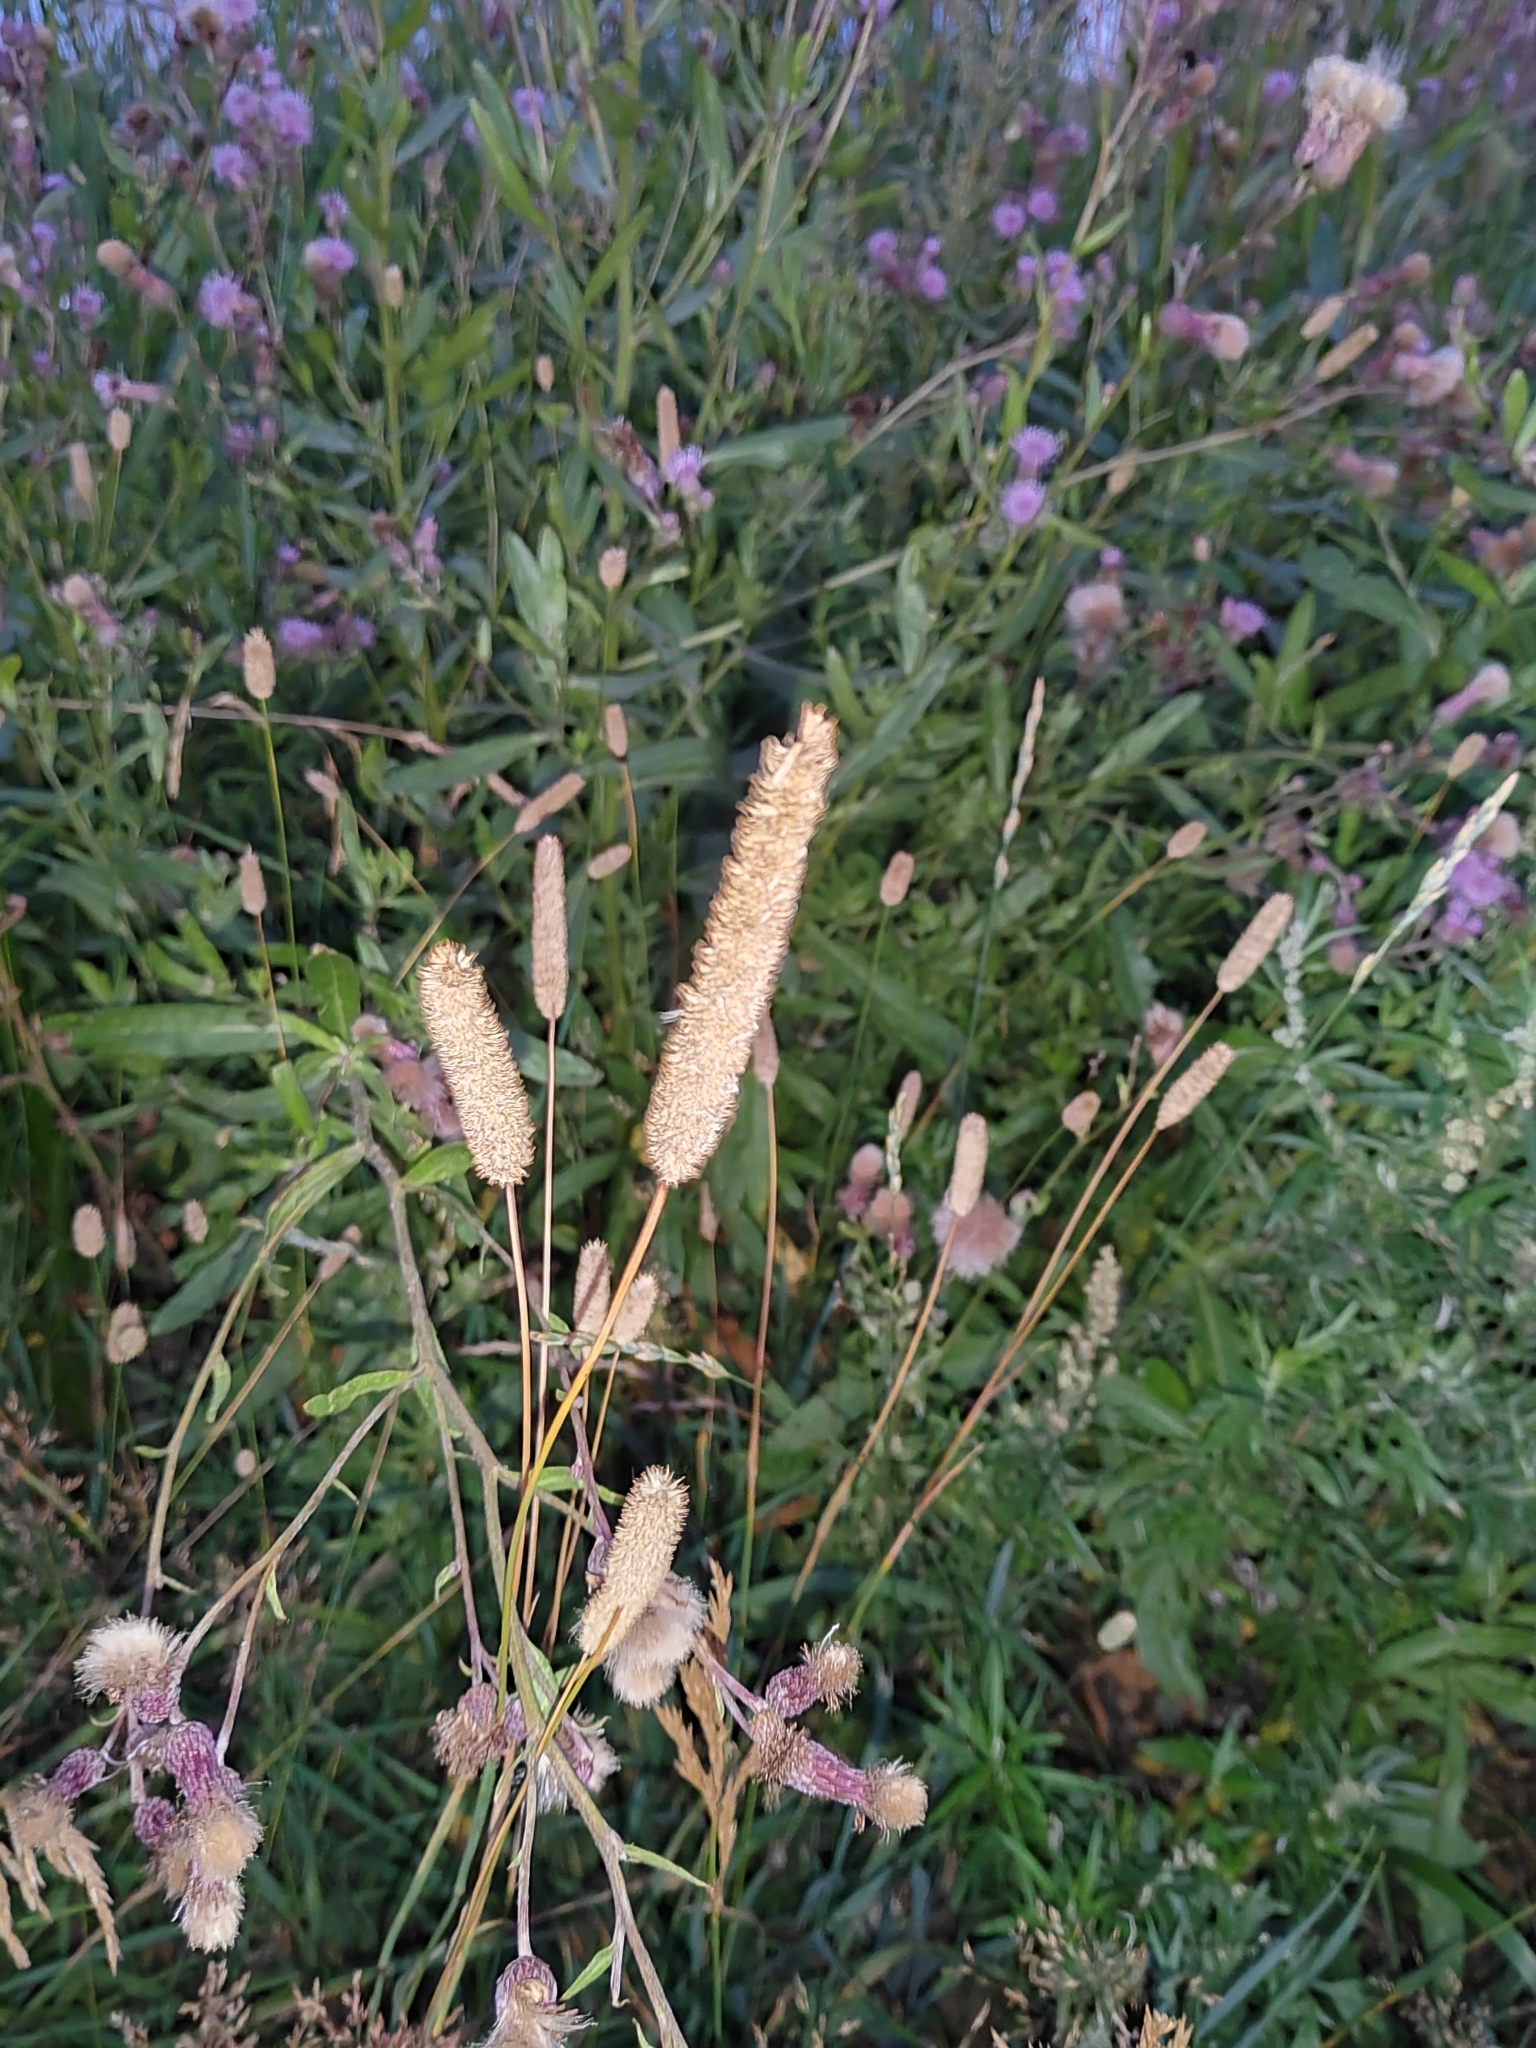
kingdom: Plantae
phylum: Tracheophyta
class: Liliopsida
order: Poales
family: Poaceae
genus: Phleum
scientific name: Phleum pratense
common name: Timothy grass
